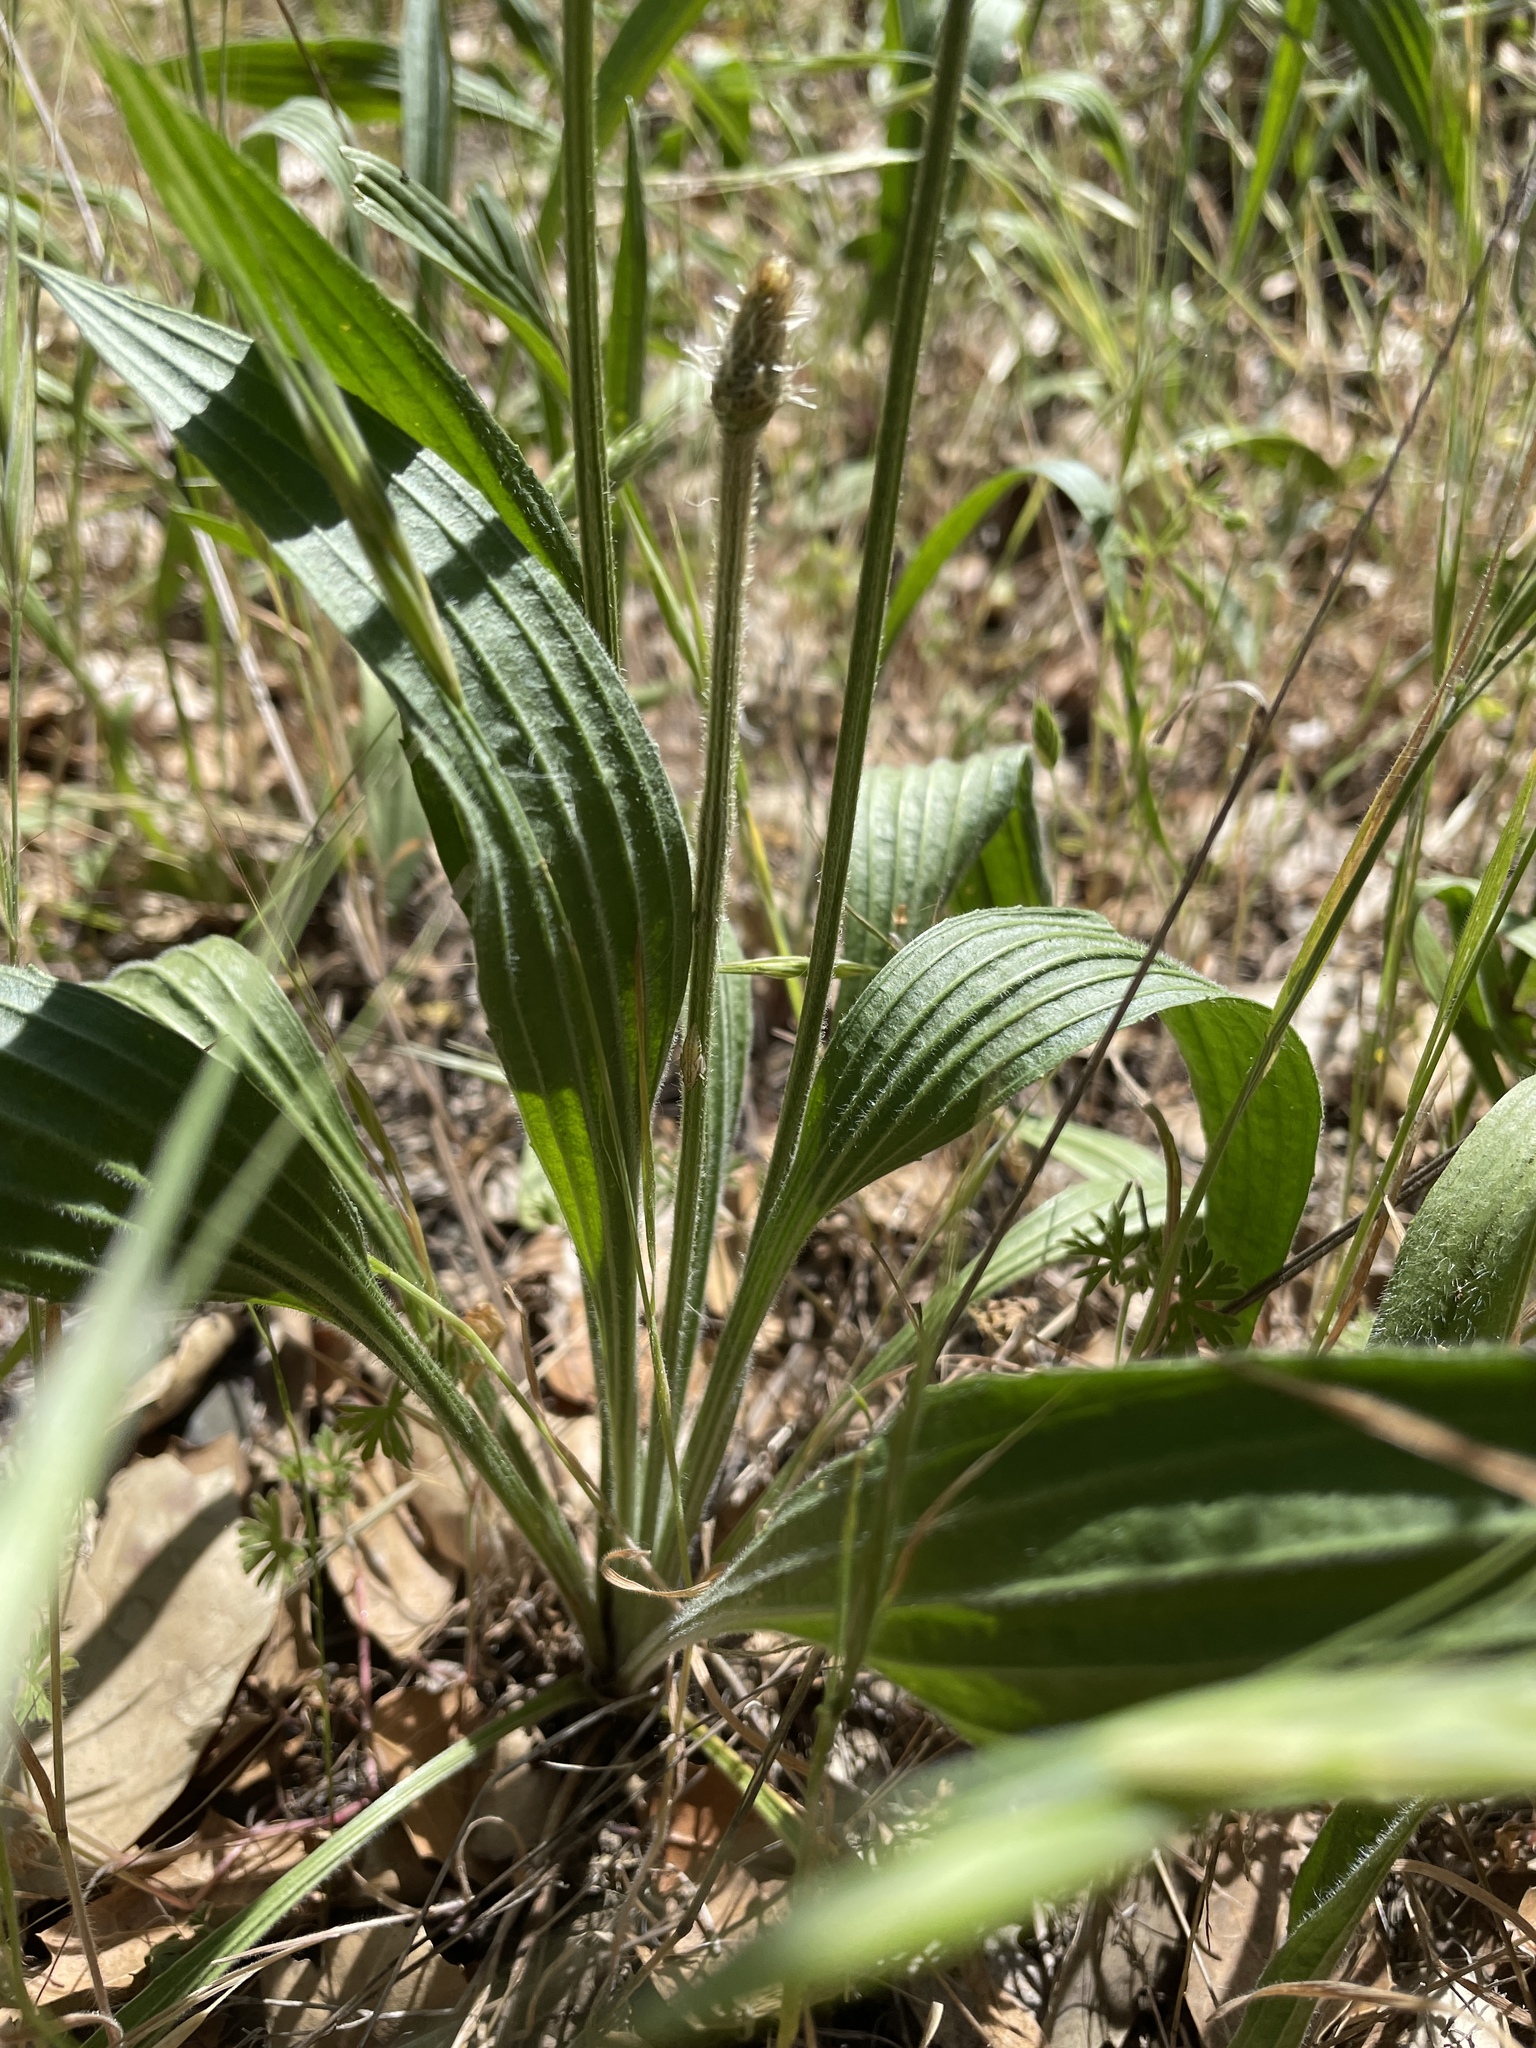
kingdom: Plantae
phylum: Tracheophyta
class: Magnoliopsida
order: Lamiales
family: Plantaginaceae
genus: Plantago
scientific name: Plantago lanceolata
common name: Ribwort plantain
